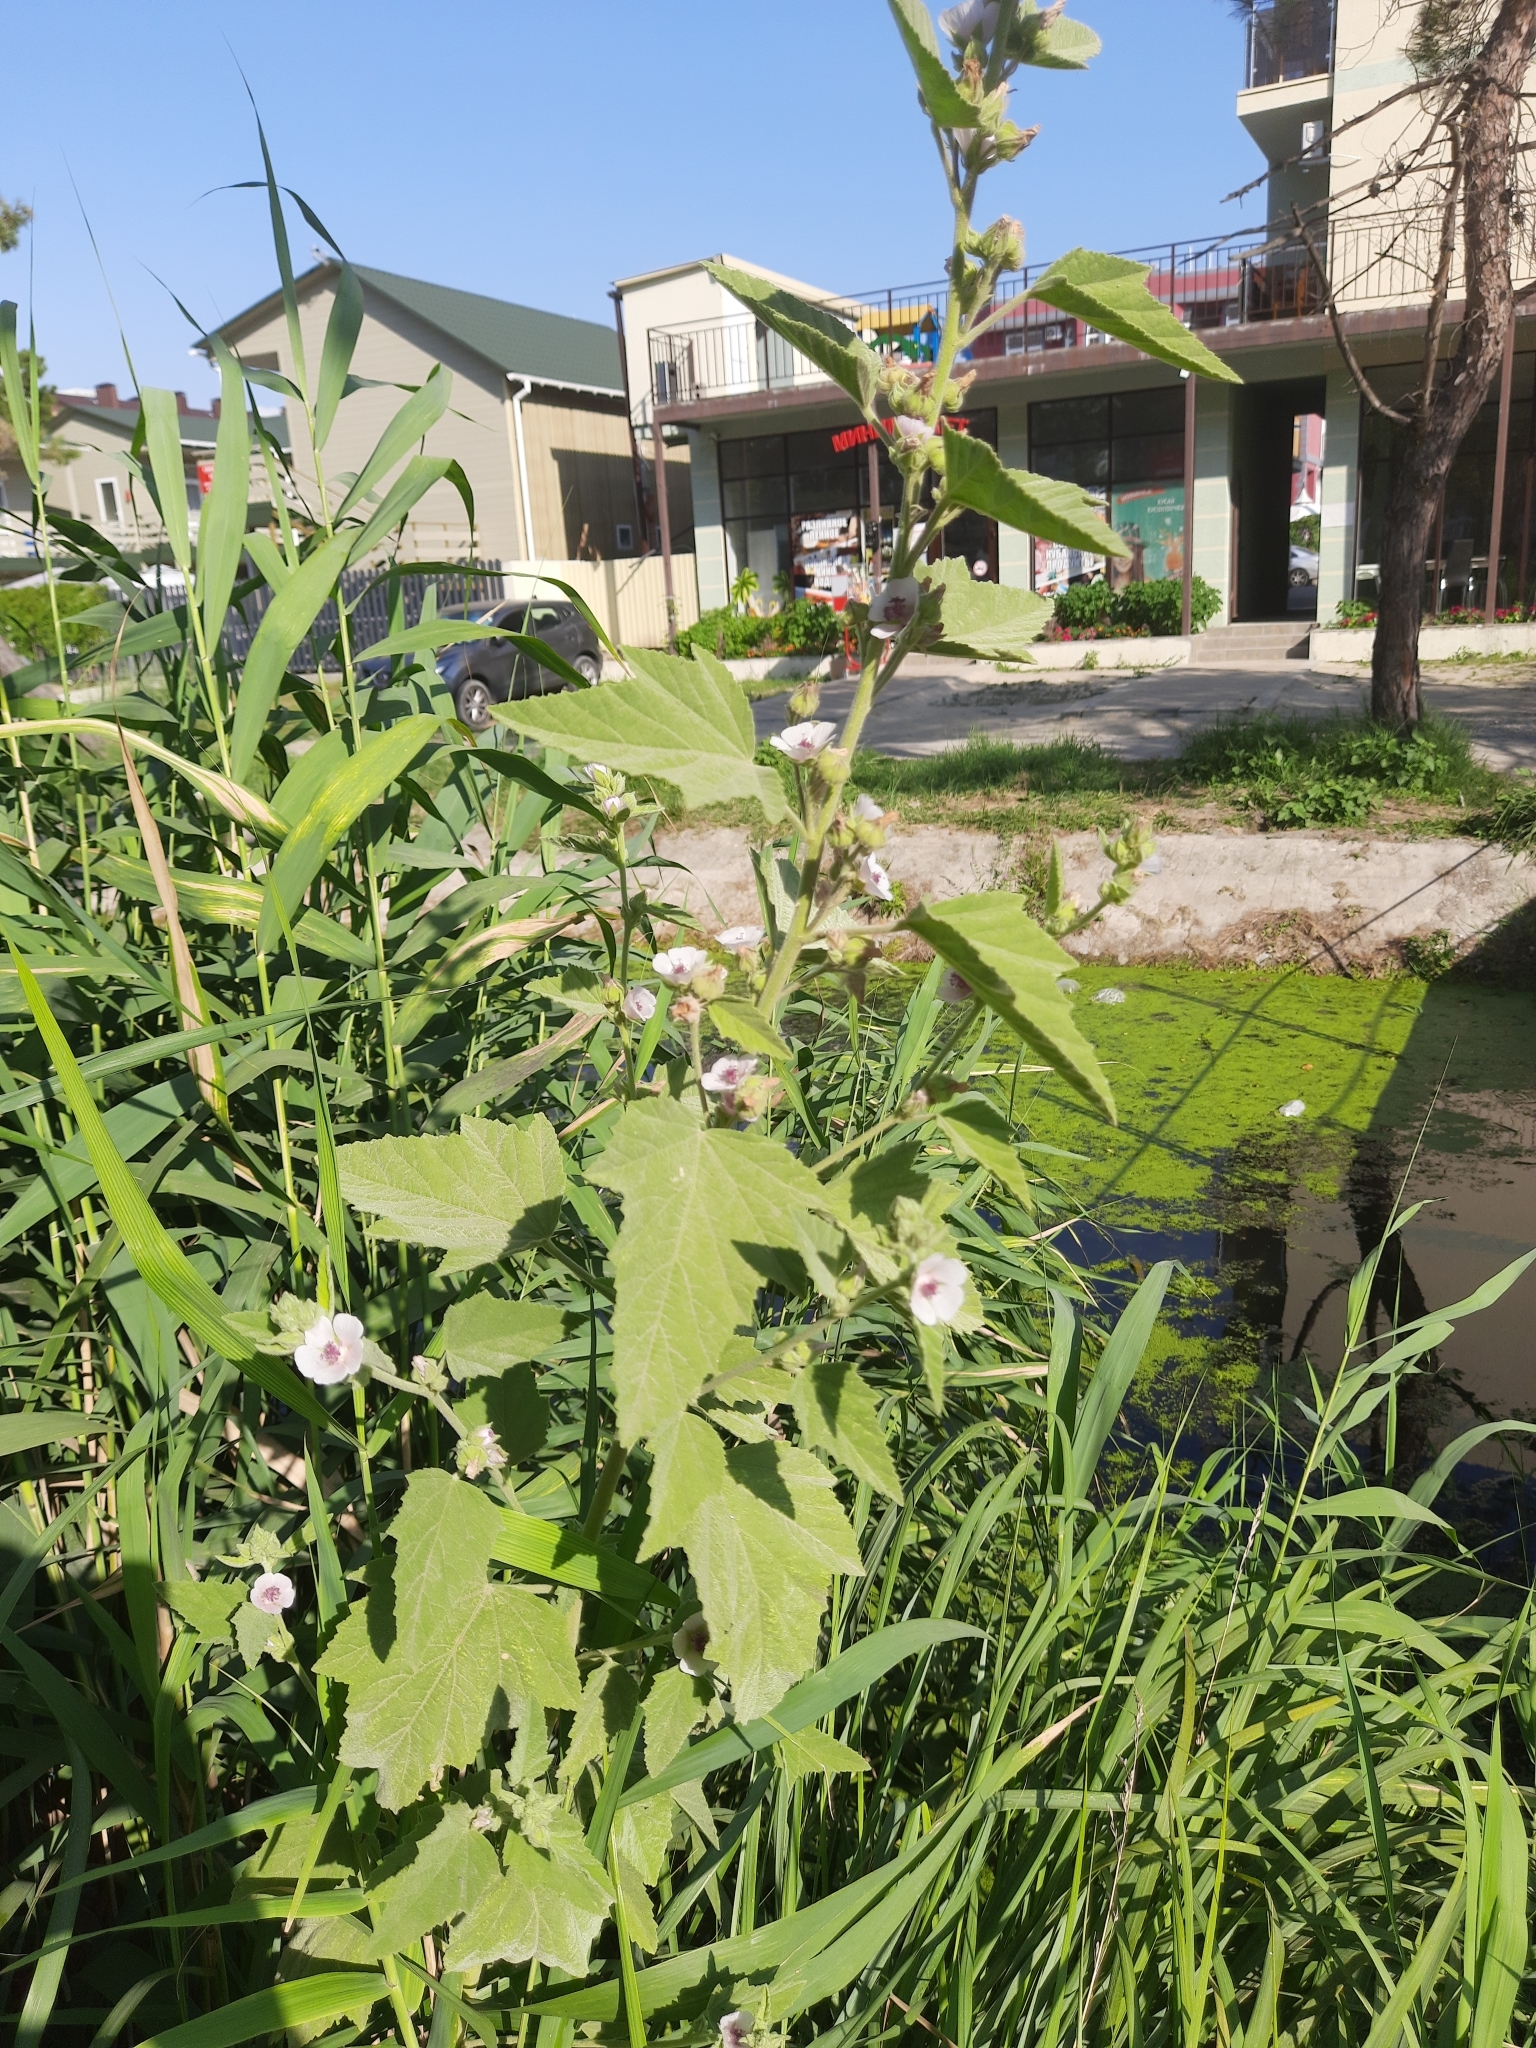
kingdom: Plantae
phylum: Tracheophyta
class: Magnoliopsida
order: Malvales
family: Malvaceae
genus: Althaea
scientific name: Althaea officinalis
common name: Marsh-mallow
